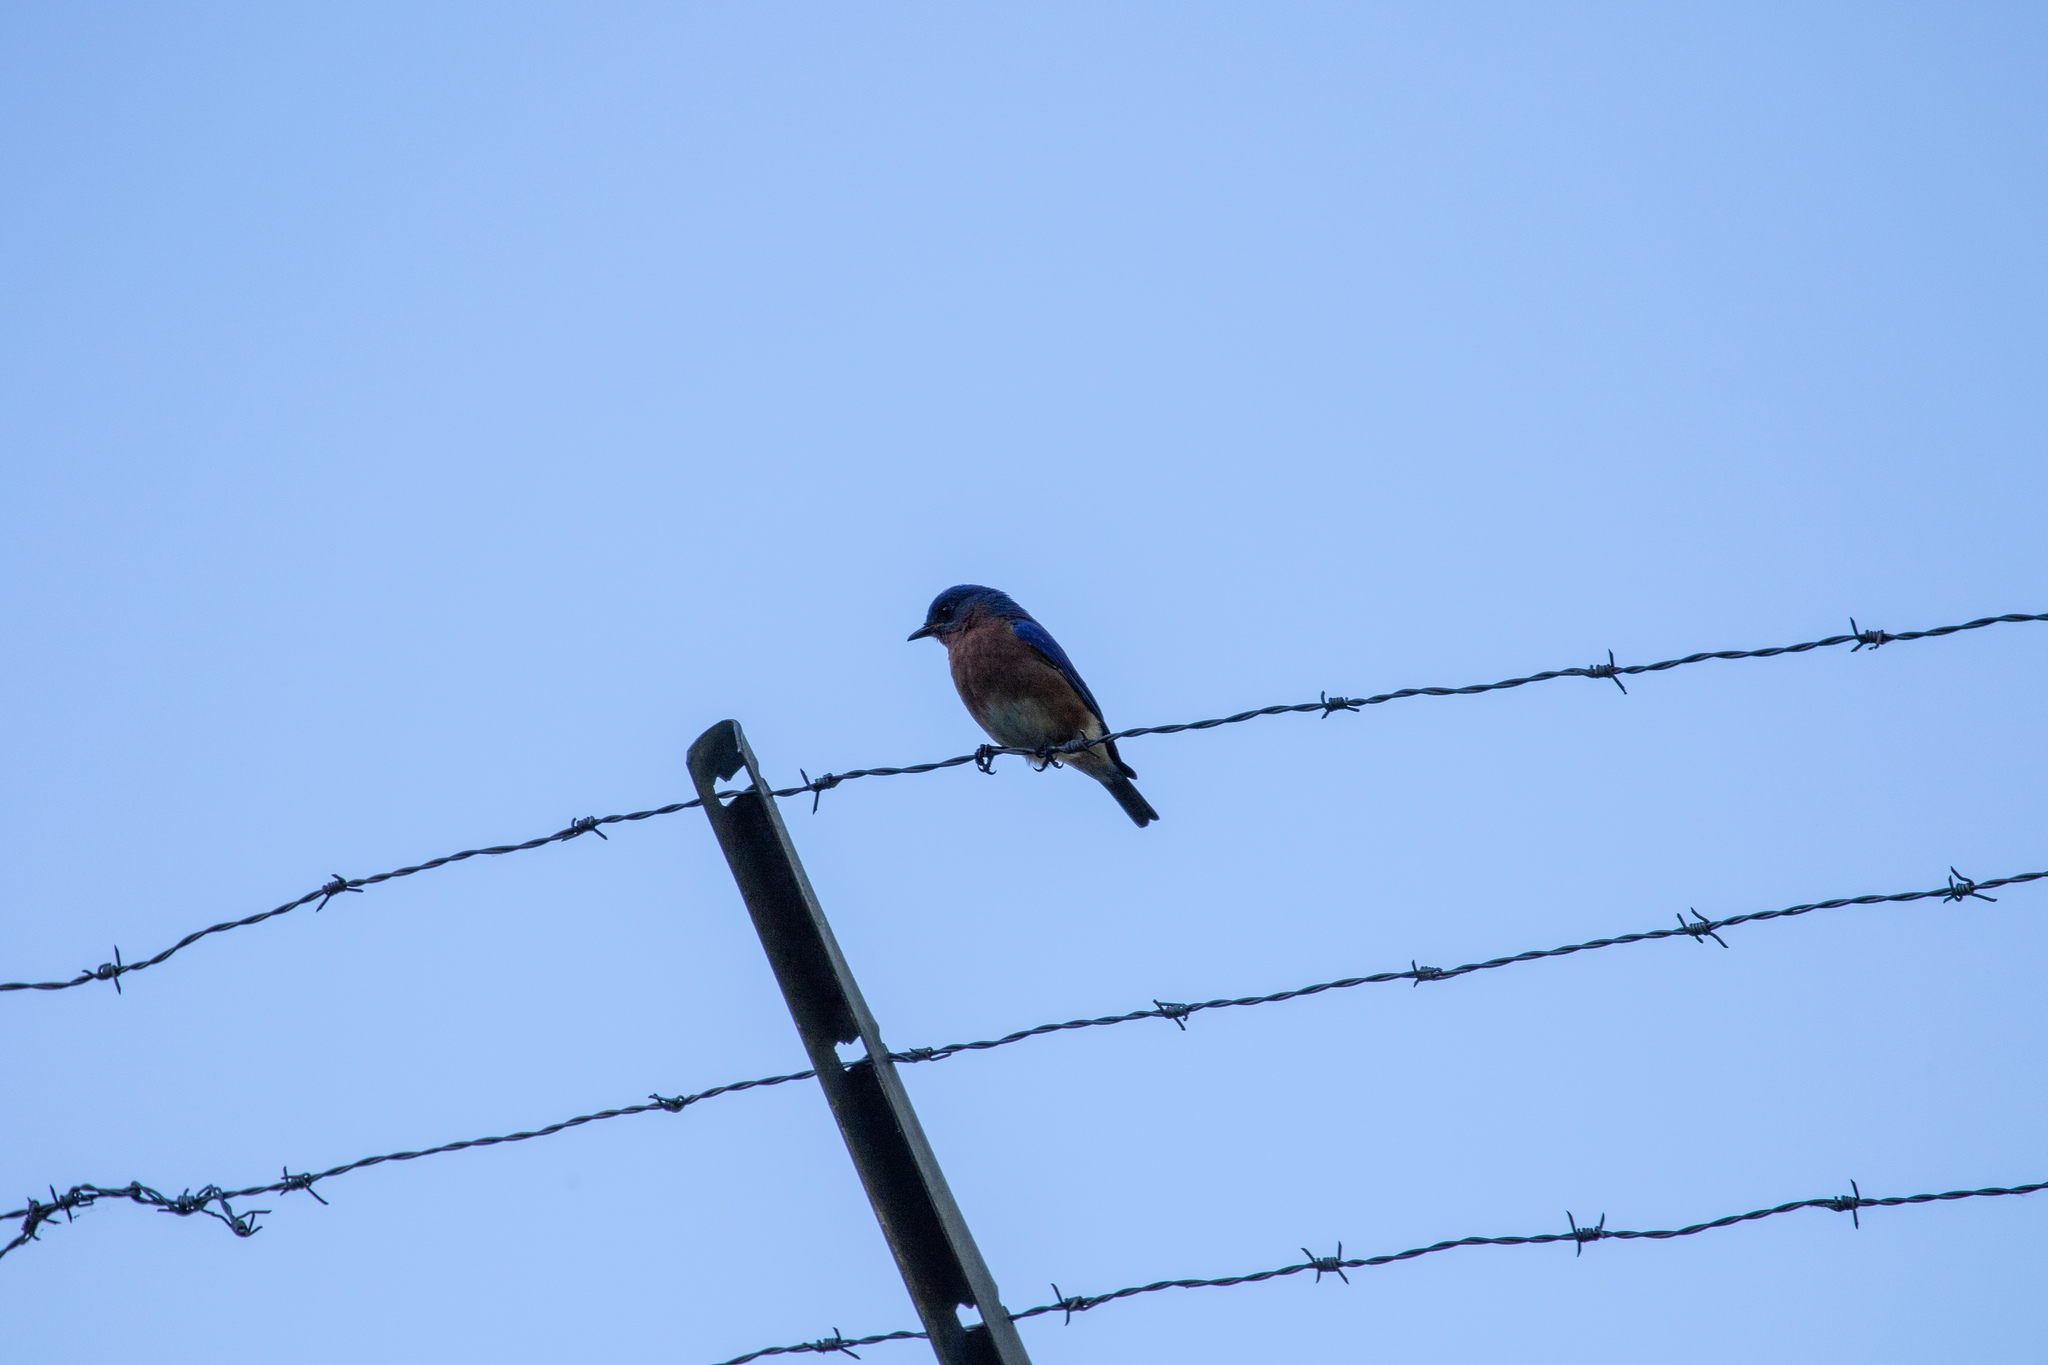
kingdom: Animalia
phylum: Chordata
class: Aves
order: Passeriformes
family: Turdidae
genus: Sialia
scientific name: Sialia sialis
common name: Eastern bluebird
